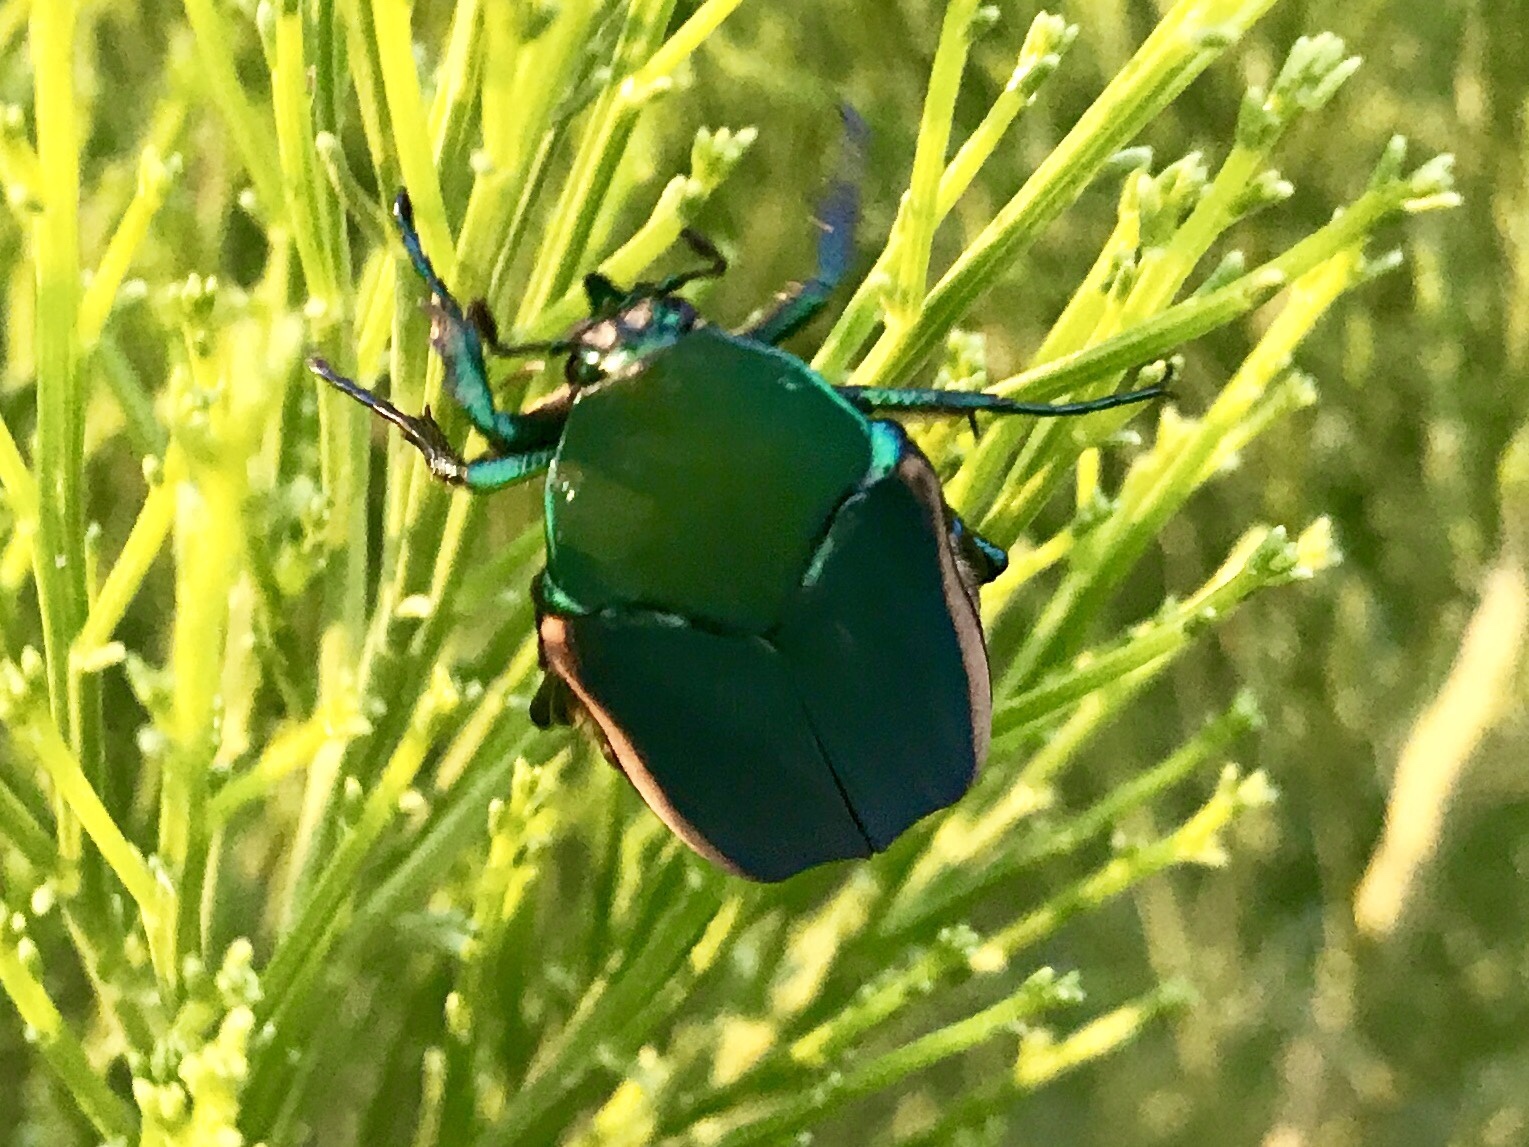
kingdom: Animalia
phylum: Arthropoda
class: Insecta
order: Coleoptera
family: Scarabaeidae
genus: Cotinis
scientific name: Cotinis mutabilis
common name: Figeater beetle
